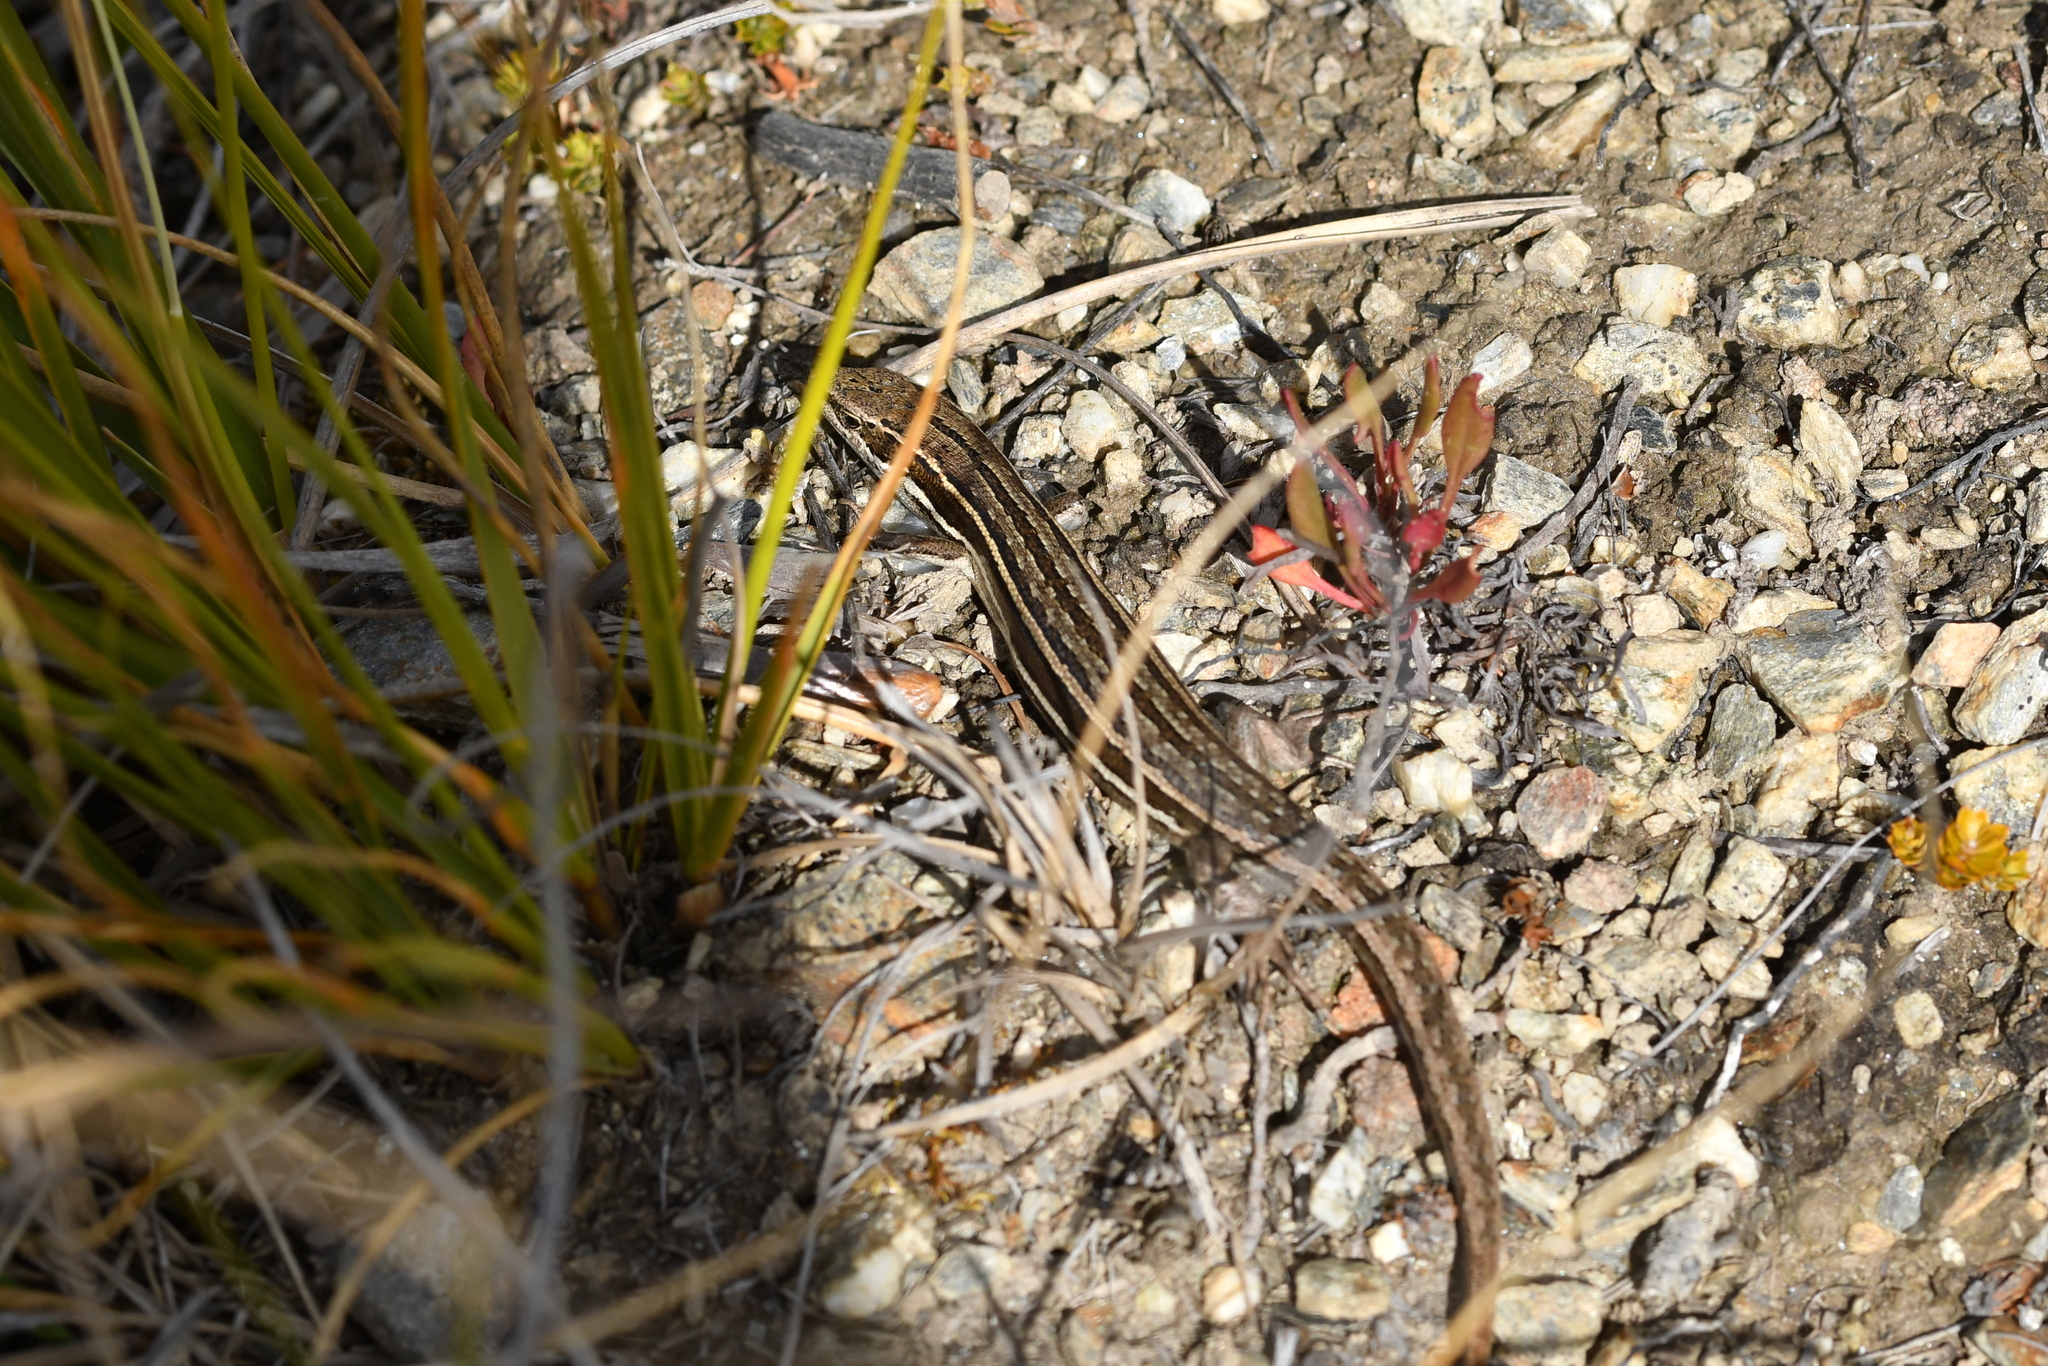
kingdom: Animalia
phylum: Chordata
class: Squamata
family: Scincidae
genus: Oligosoma
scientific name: Oligosoma maccanni
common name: Mccann’s skink
